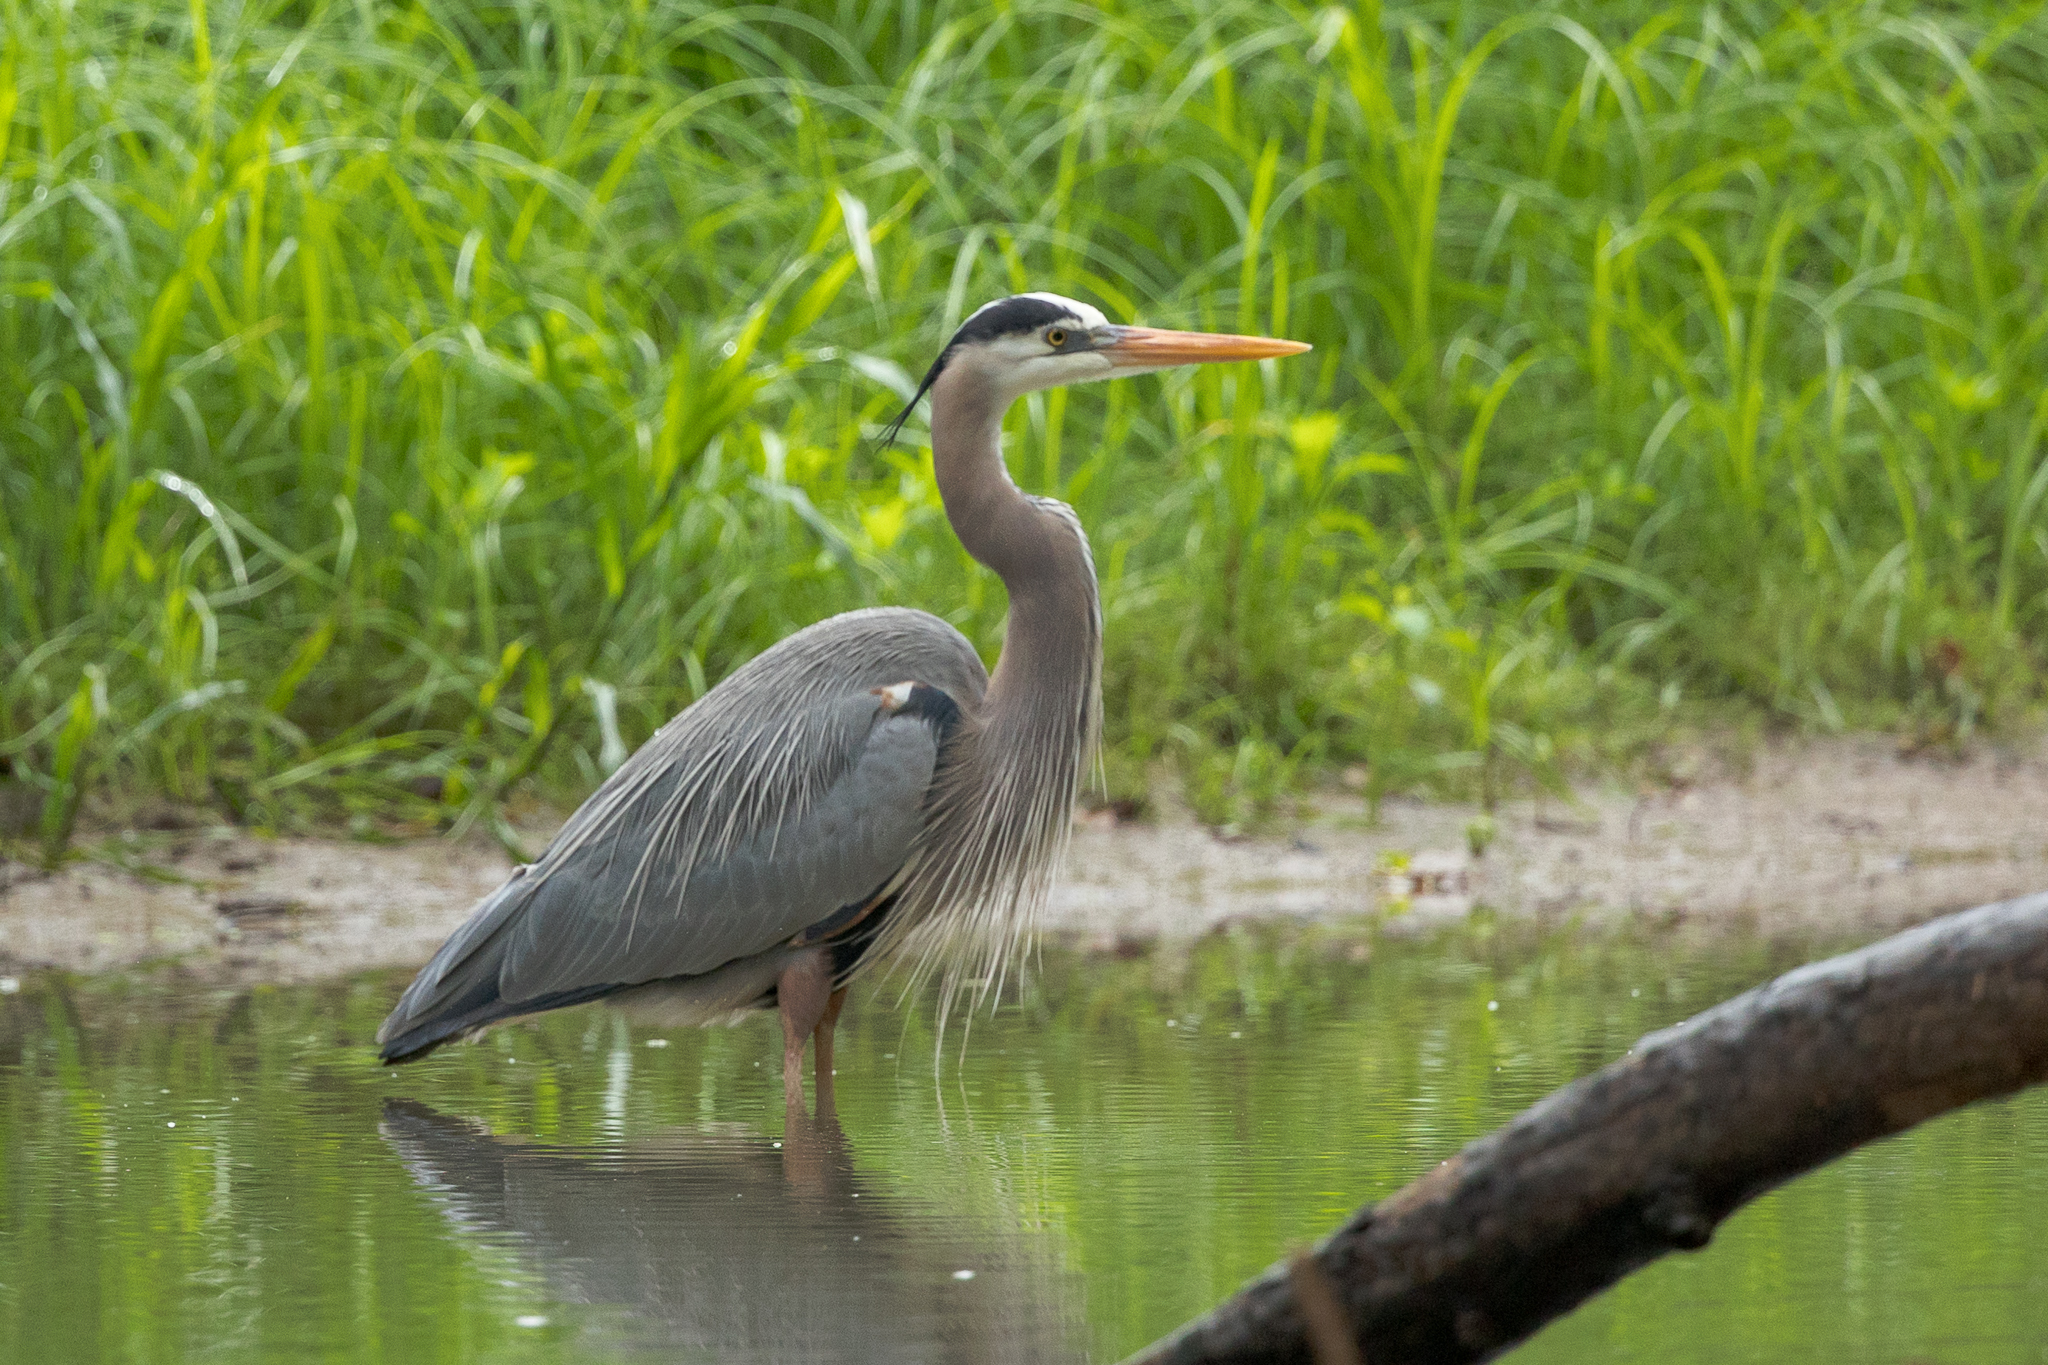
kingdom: Animalia
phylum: Chordata
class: Aves
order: Pelecaniformes
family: Ardeidae
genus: Ardea
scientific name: Ardea herodias
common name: Great blue heron
